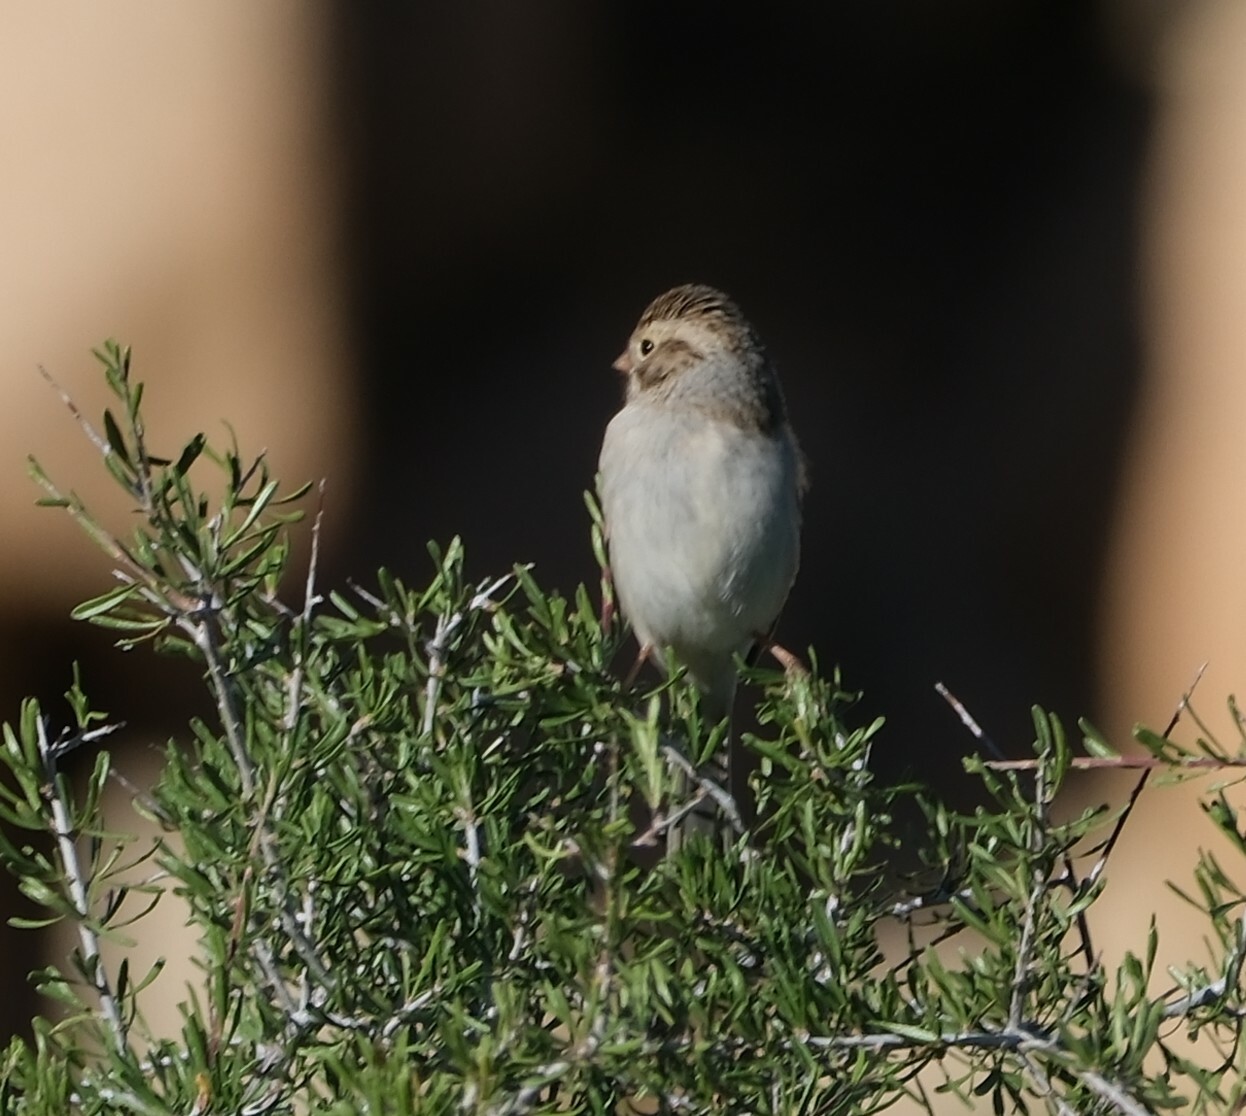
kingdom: Animalia
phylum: Chordata
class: Aves
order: Passeriformes
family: Passerellidae
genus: Spizella
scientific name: Spizella breweri
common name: Brewer's sparrow
